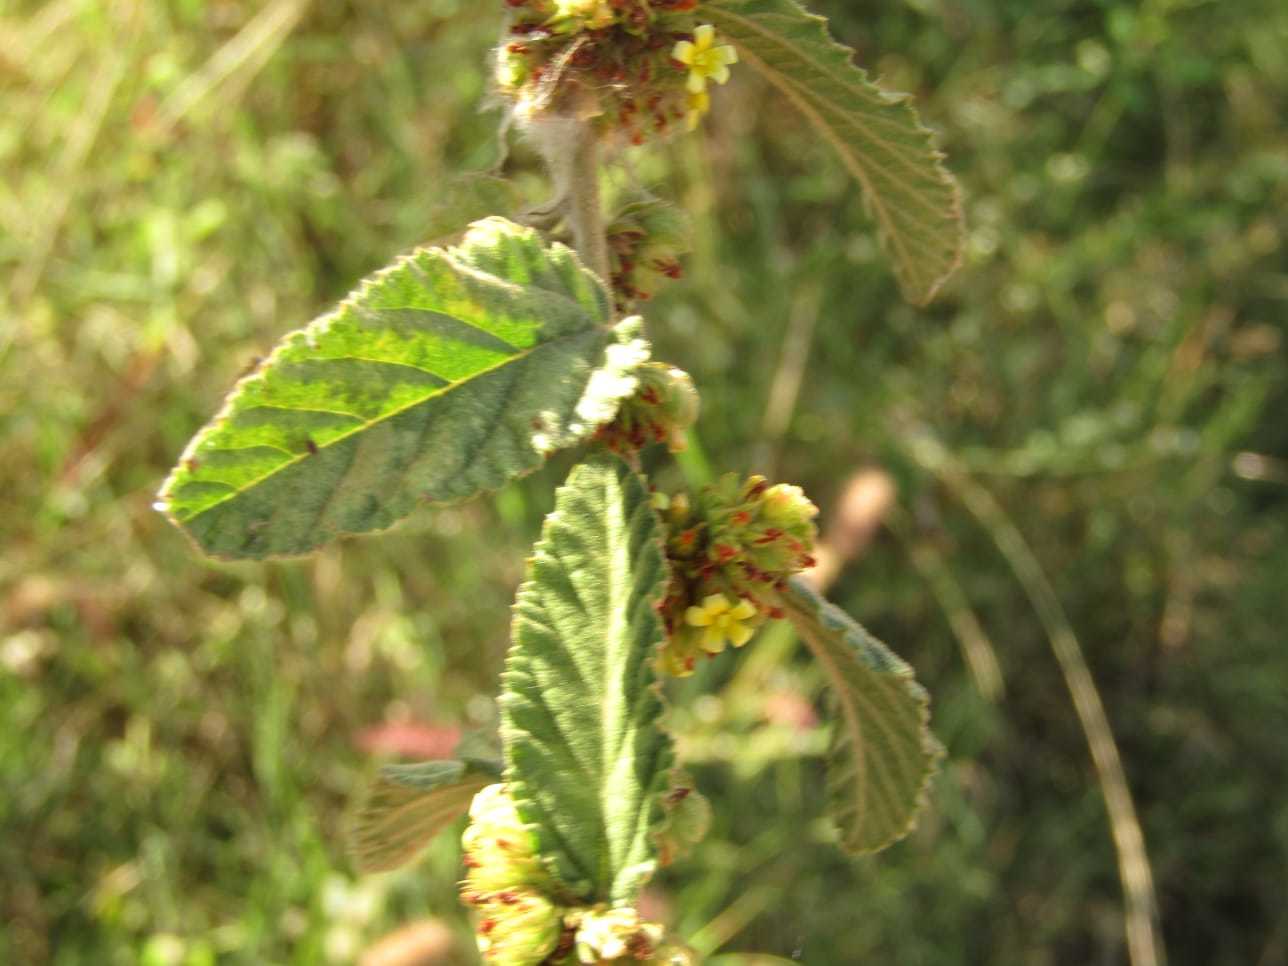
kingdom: Plantae
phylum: Tracheophyta
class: Magnoliopsida
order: Malvales
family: Malvaceae
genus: Waltheria
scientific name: Waltheria indica
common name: Leather-coat
